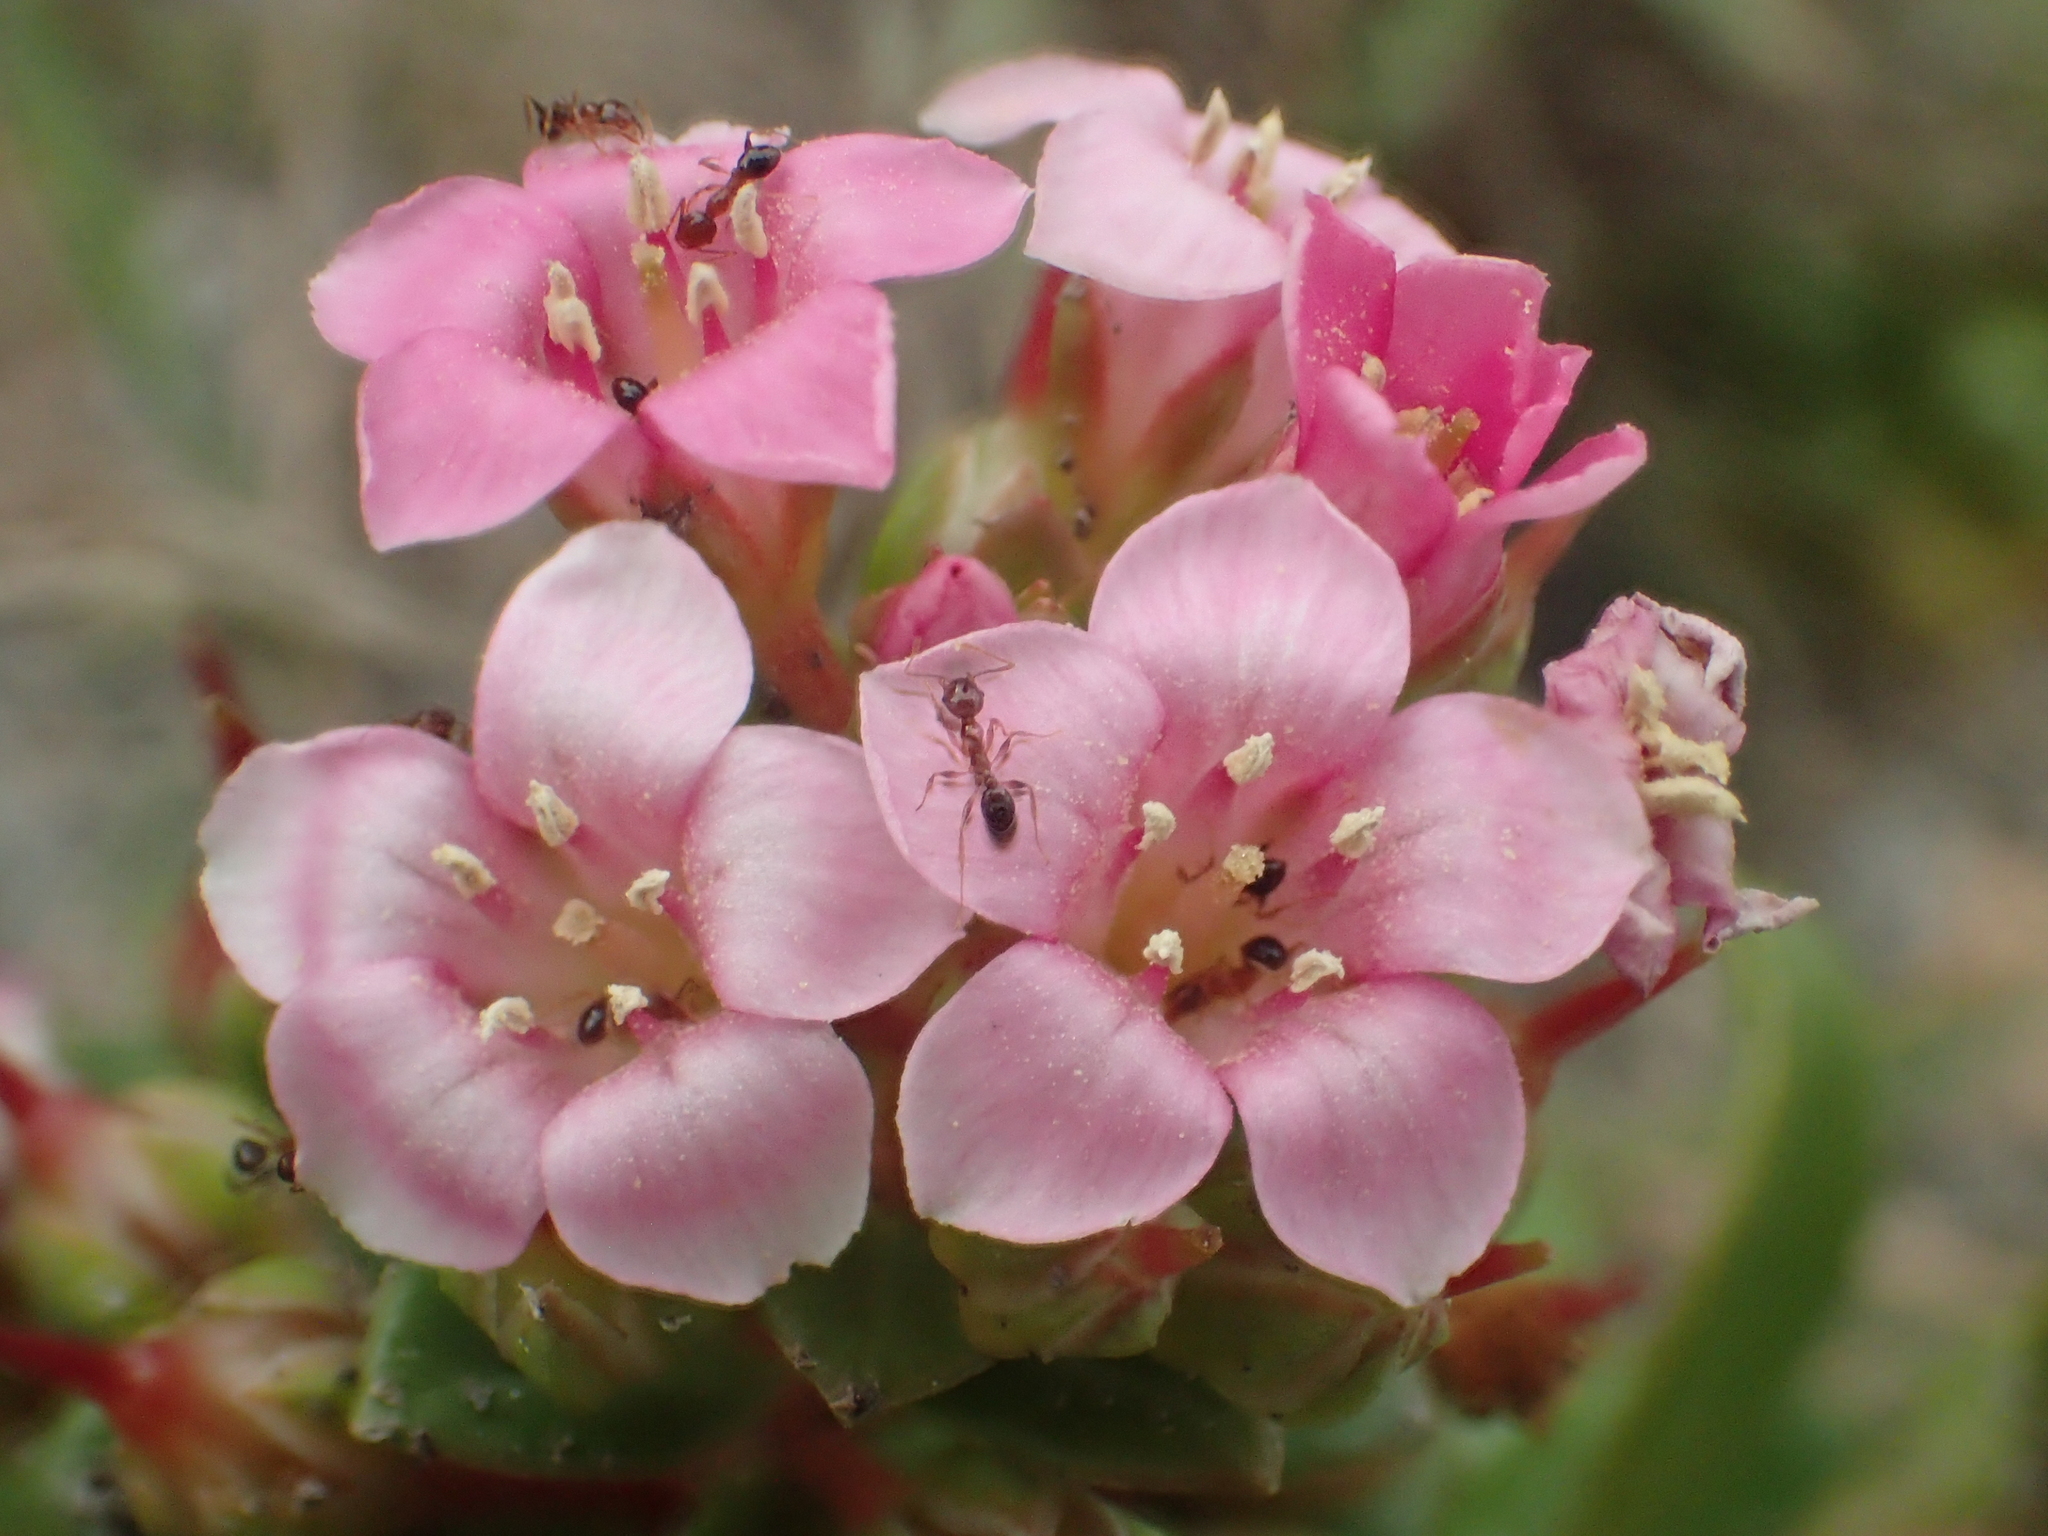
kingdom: Plantae
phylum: Tracheophyta
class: Magnoliopsida
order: Ericales
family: Primulaceae
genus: Lysimachia
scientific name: Lysimachia mauritiana
